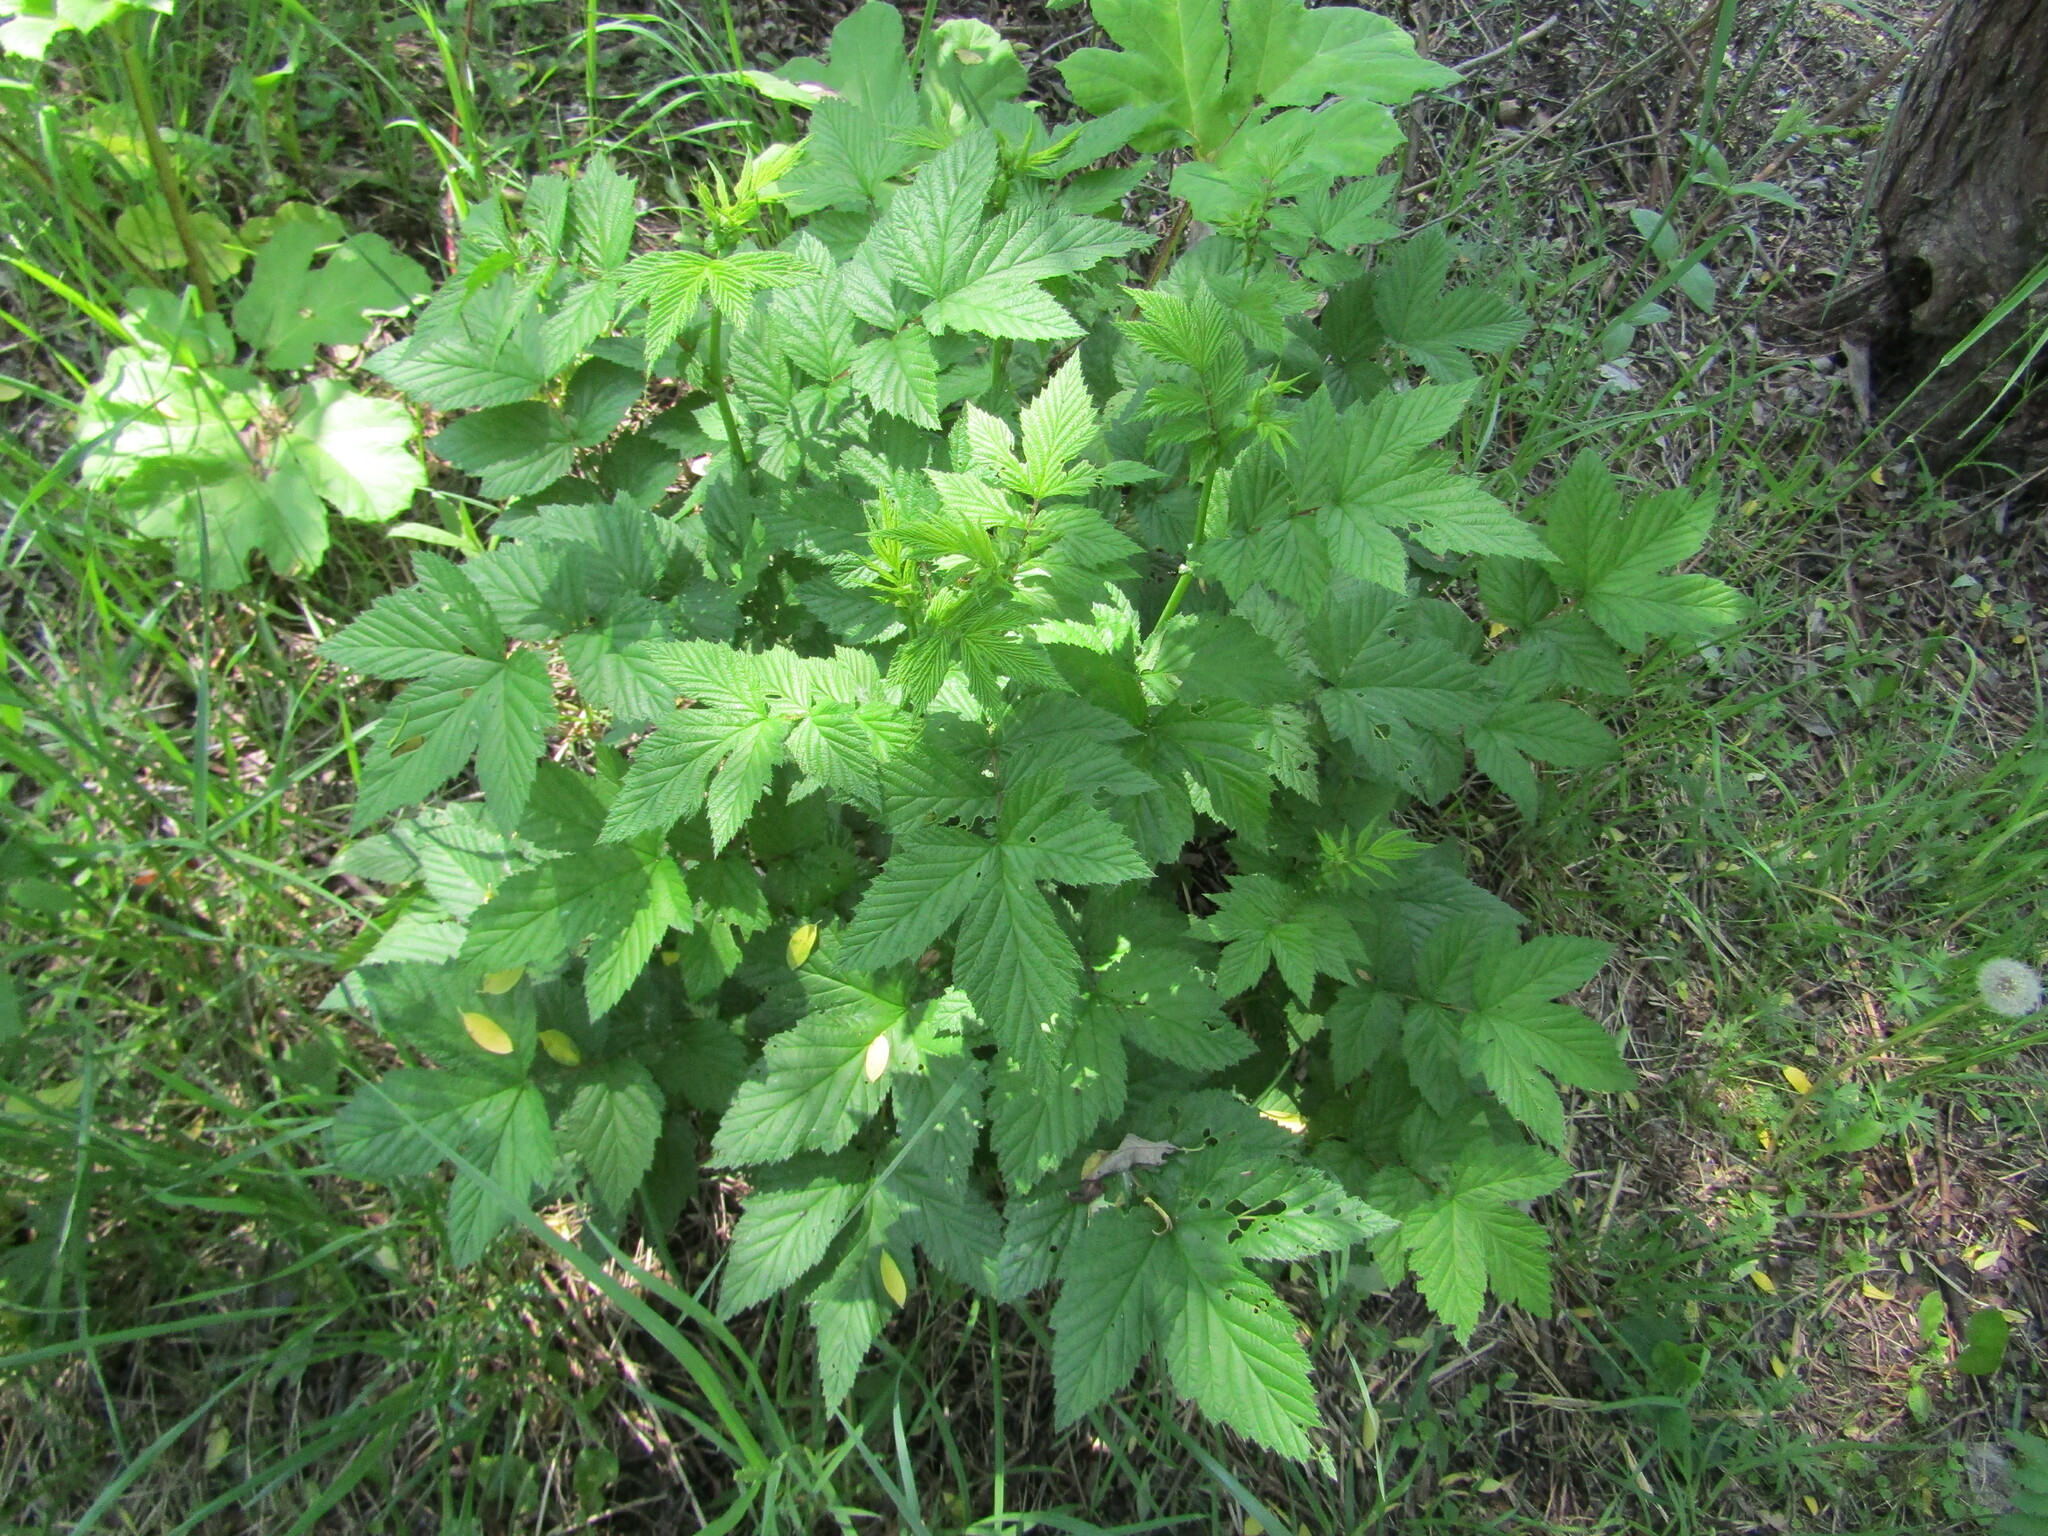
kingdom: Plantae
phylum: Tracheophyta
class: Magnoliopsida
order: Rosales
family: Rosaceae
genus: Filipendula
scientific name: Filipendula ulmaria
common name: Meadowsweet
